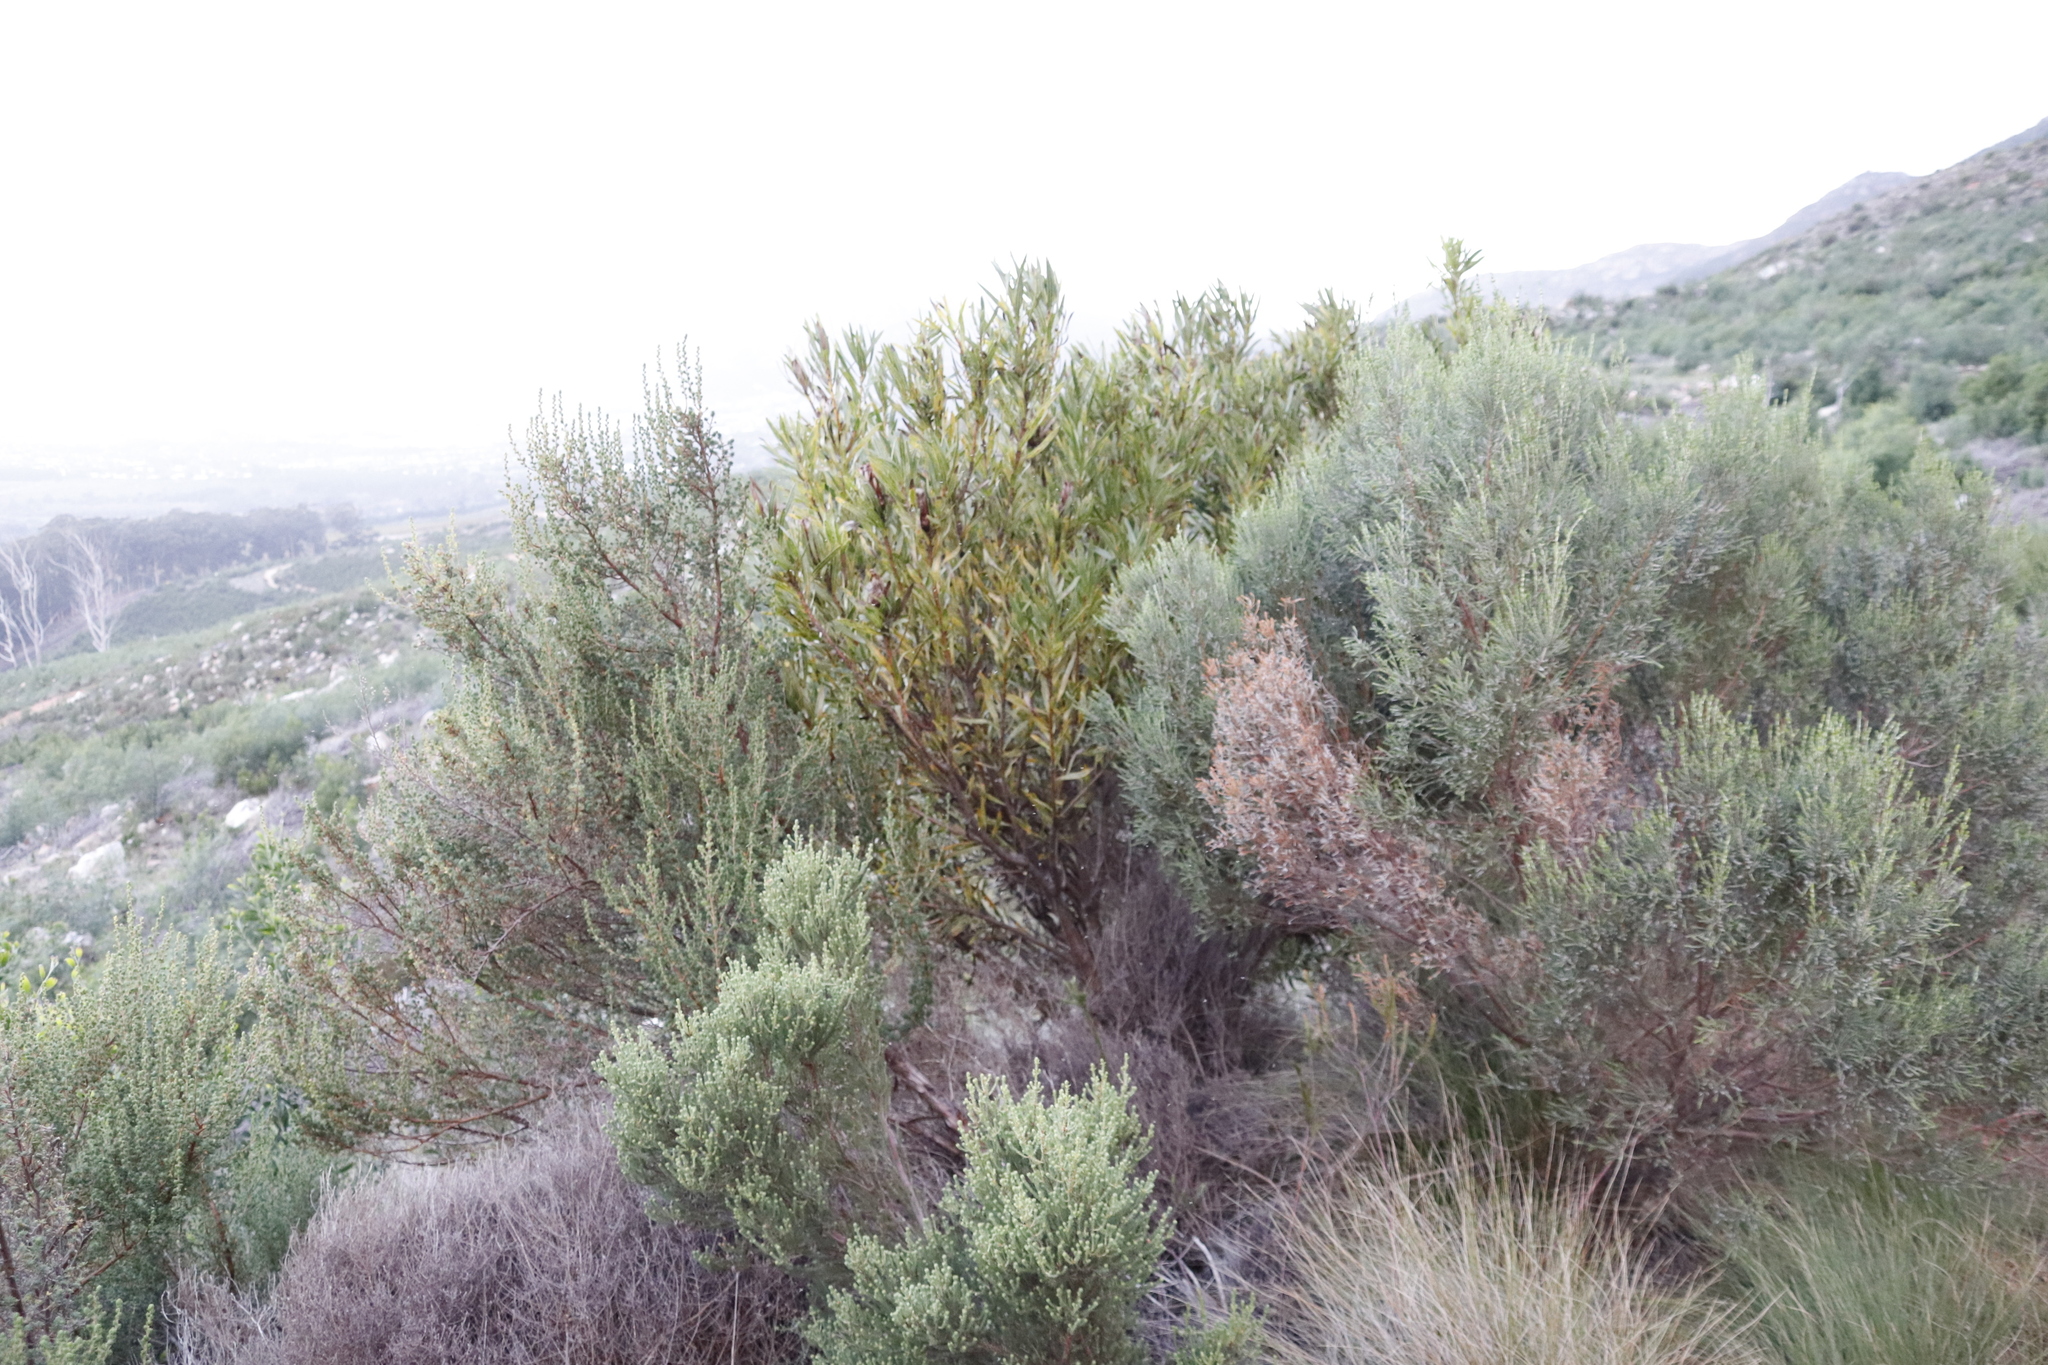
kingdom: Plantae
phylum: Tracheophyta
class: Magnoliopsida
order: Proteales
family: Proteaceae
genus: Protea
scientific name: Protea lepidocarpodendron
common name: Black-bearded protea
